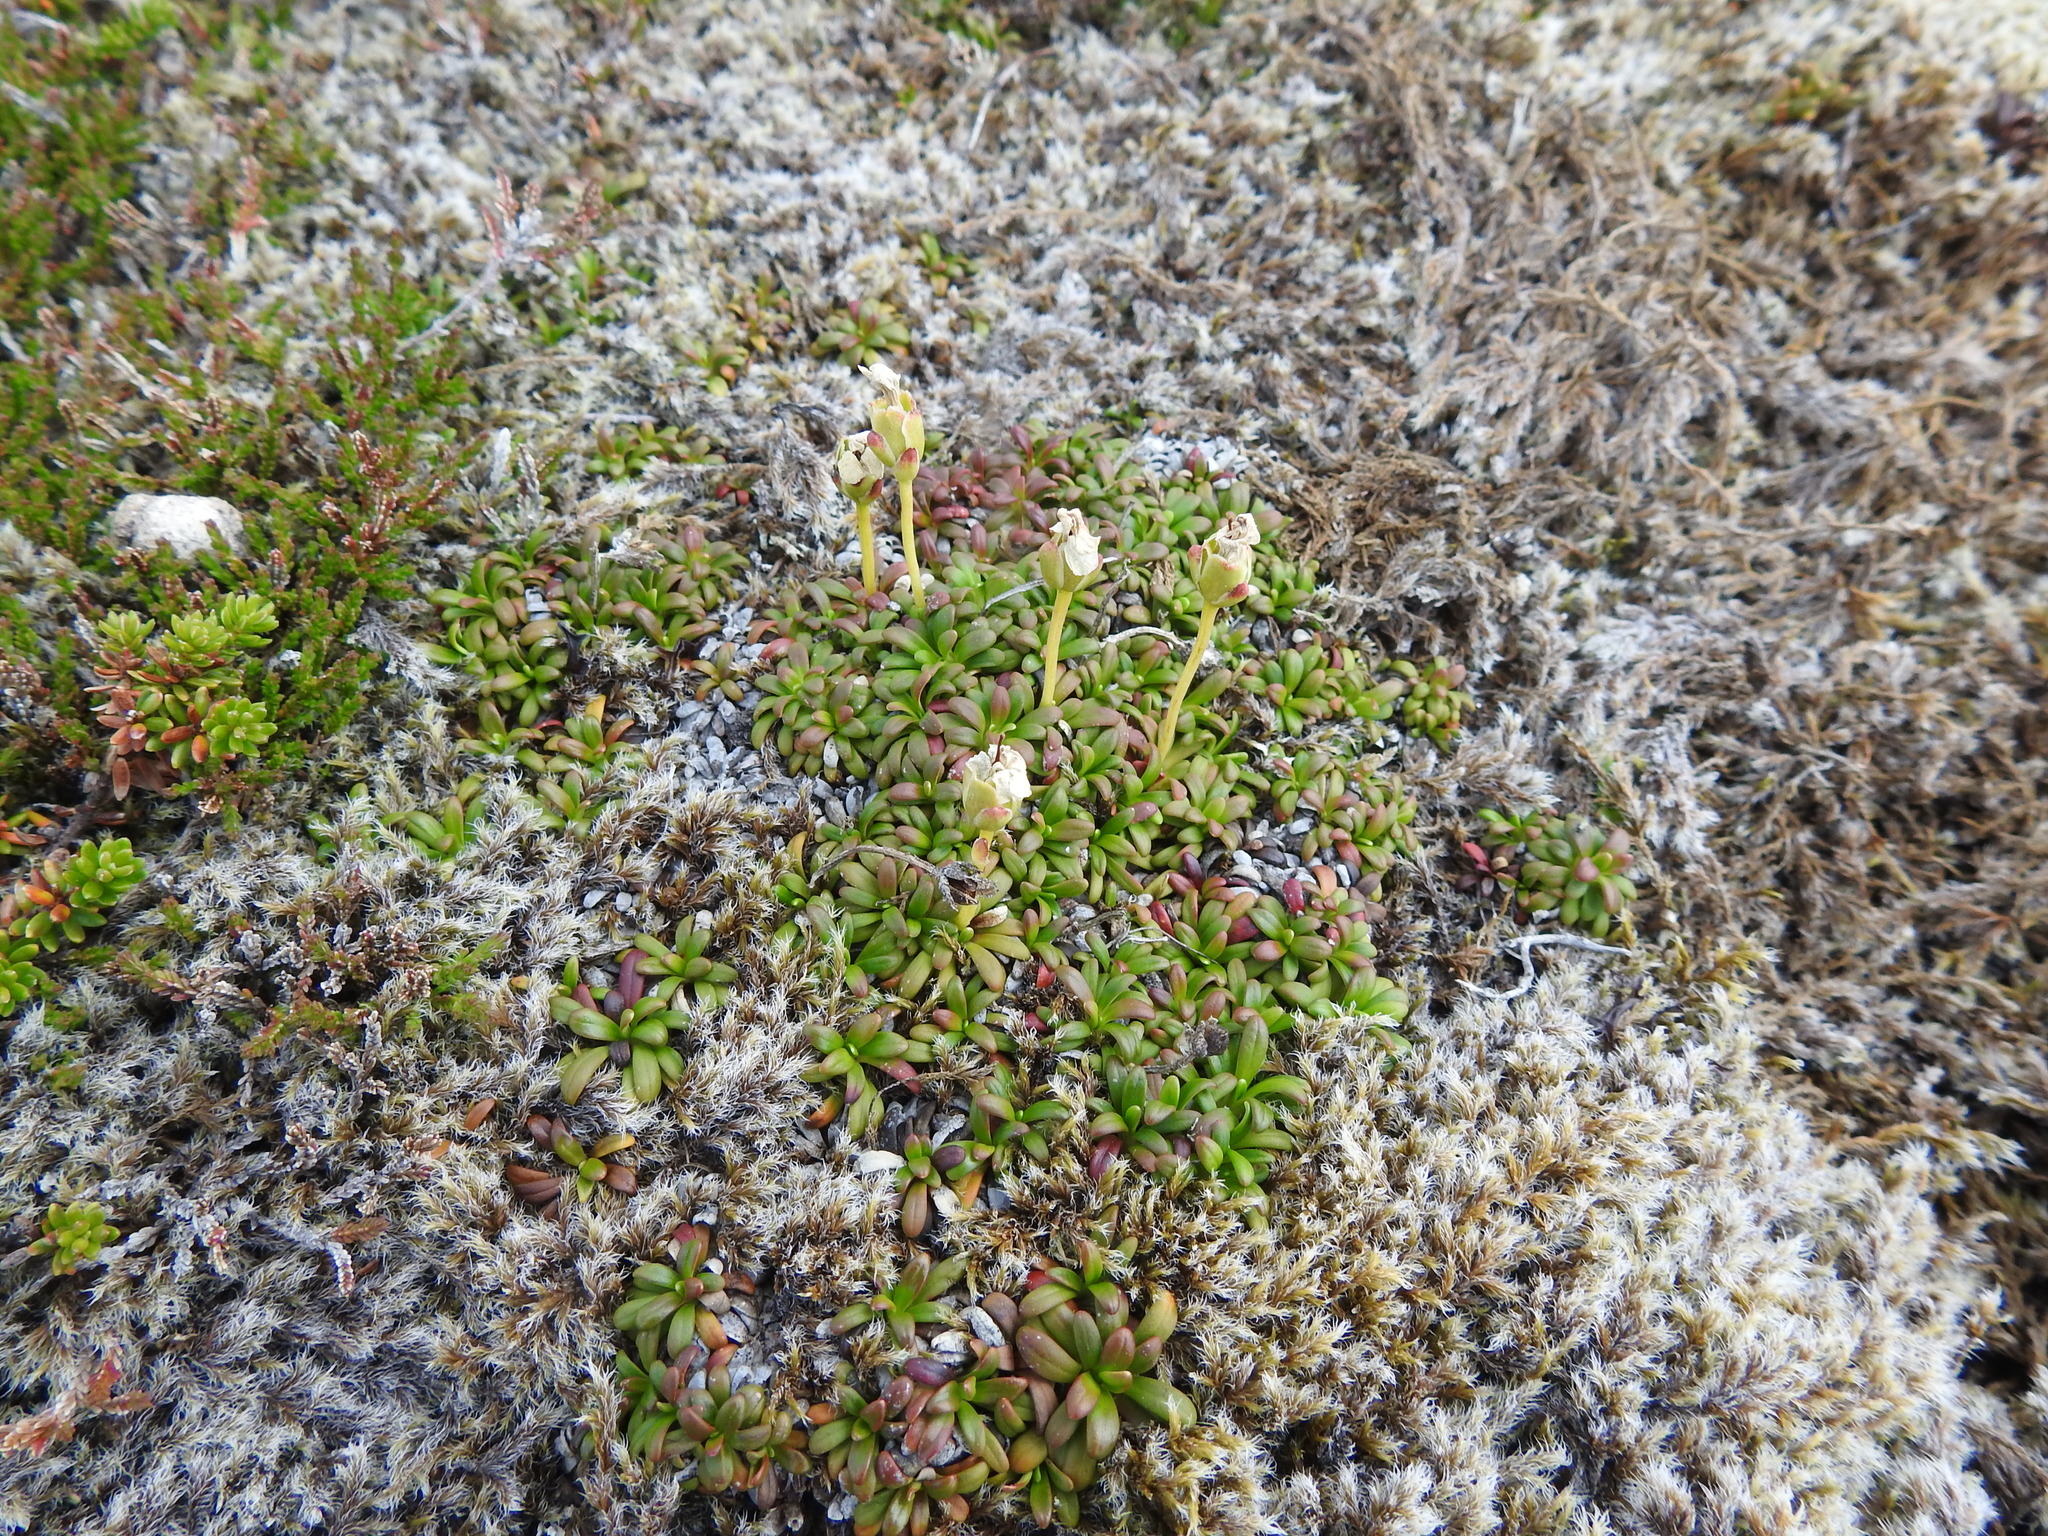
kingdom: Plantae
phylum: Tracheophyta
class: Magnoliopsida
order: Ericales
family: Diapensiaceae
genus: Diapensia
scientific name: Diapensia lapponica
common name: Diapensia
